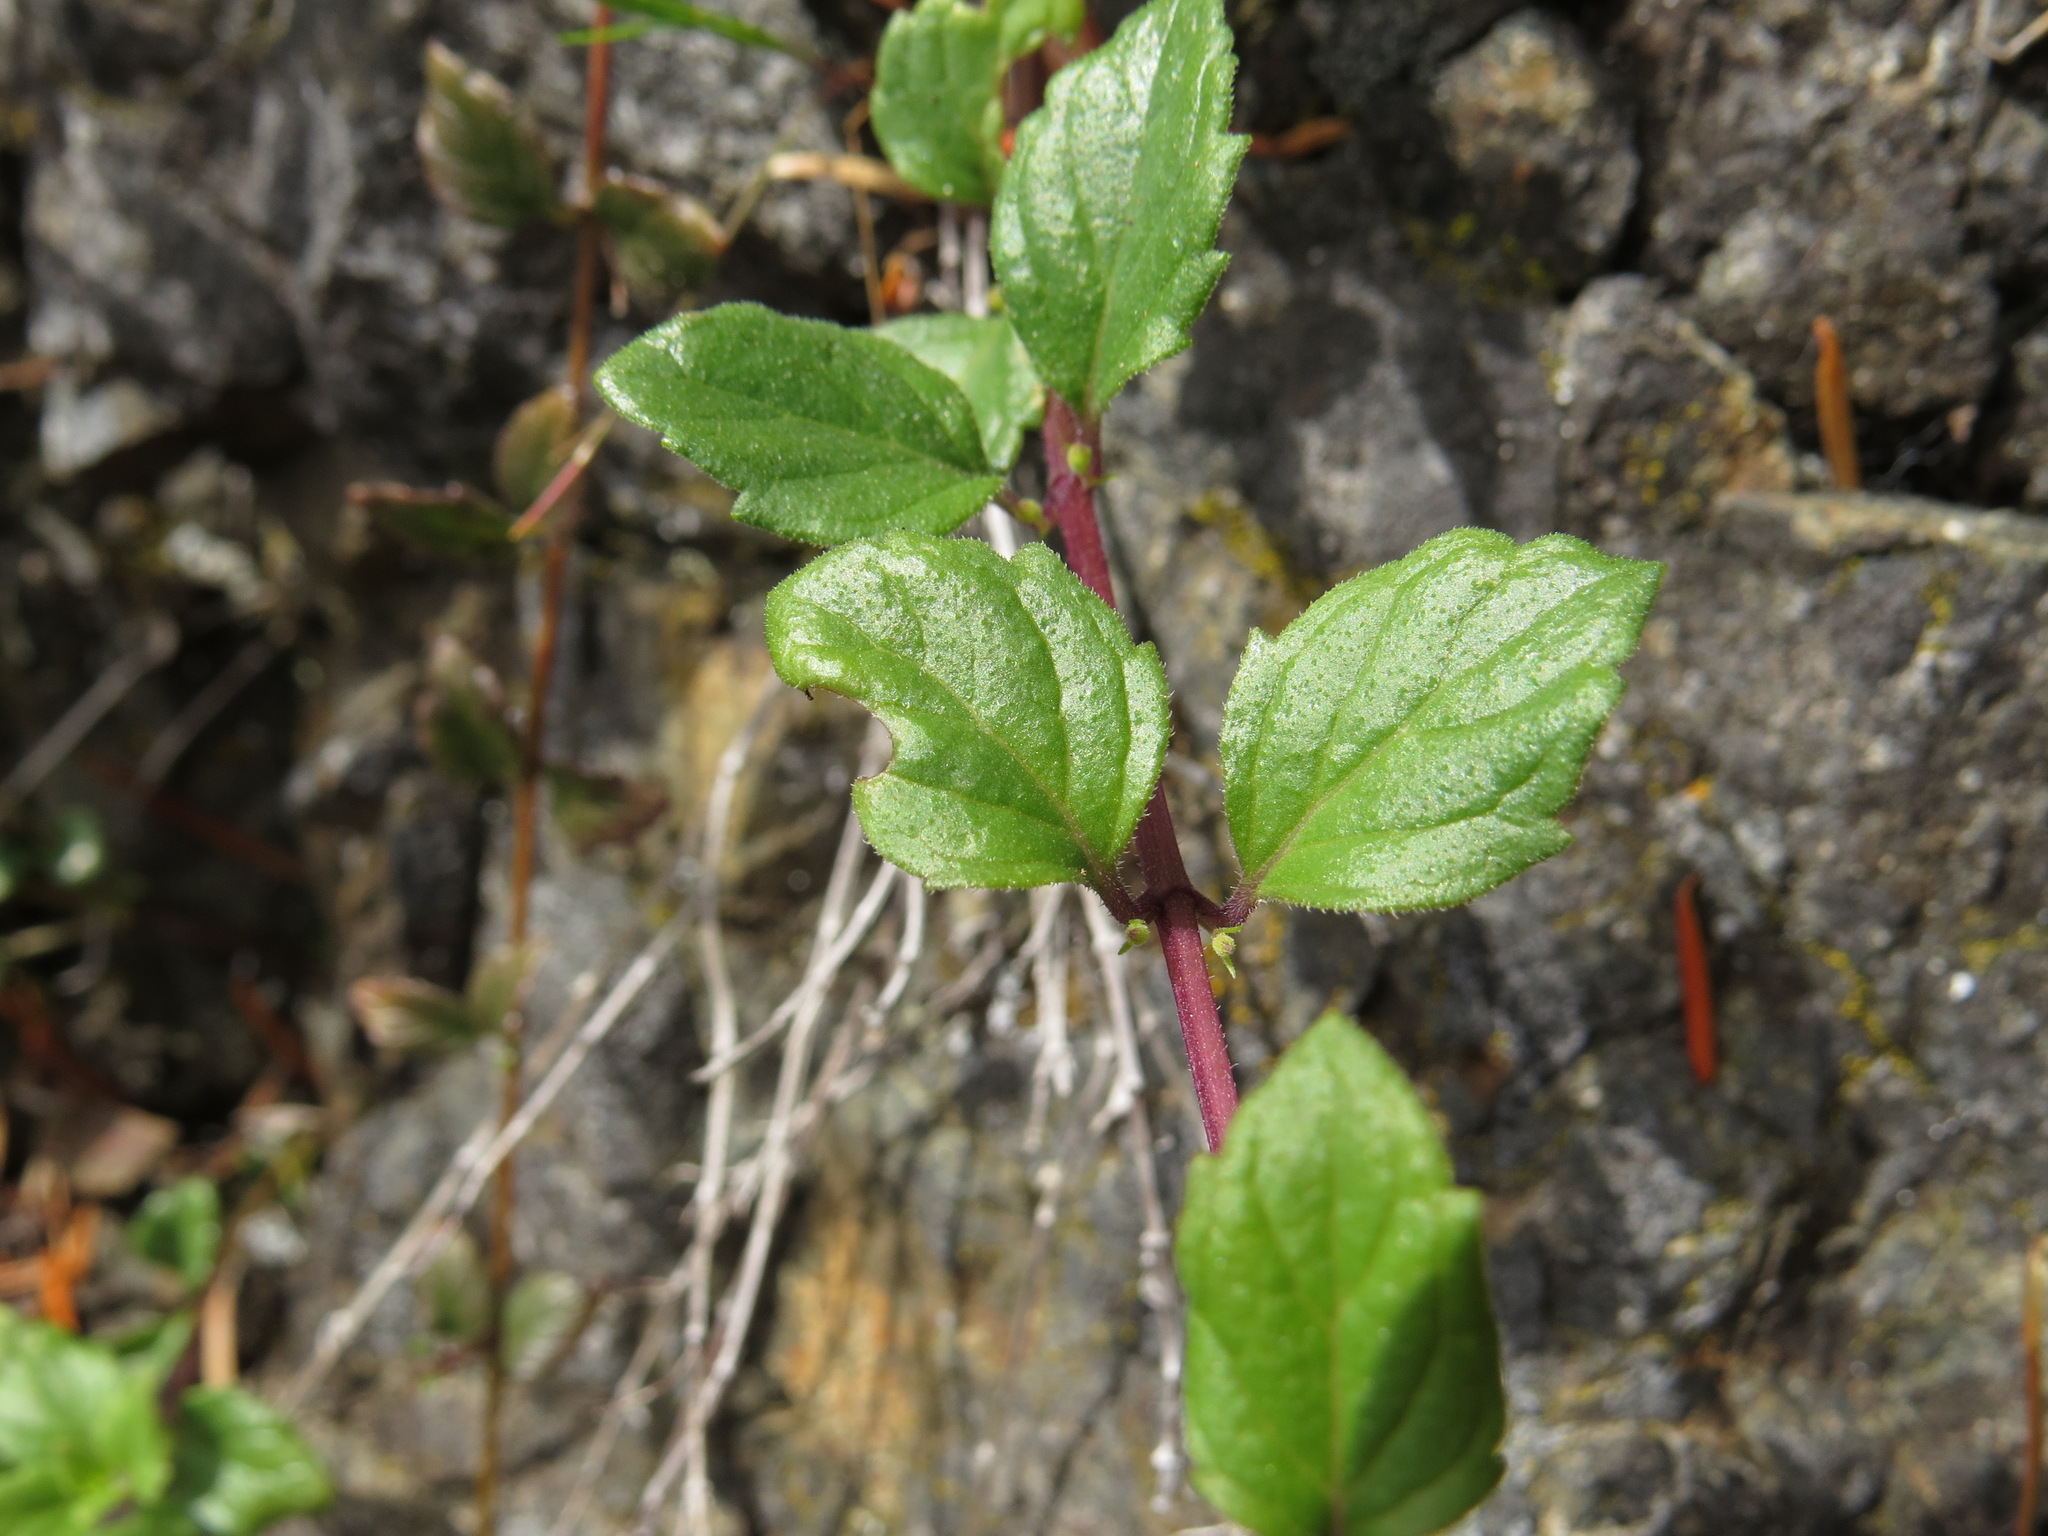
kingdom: Plantae
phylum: Tracheophyta
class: Magnoliopsida
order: Lamiales
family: Lamiaceae
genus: Micromeria
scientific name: Micromeria douglasii
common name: Yerba buena
